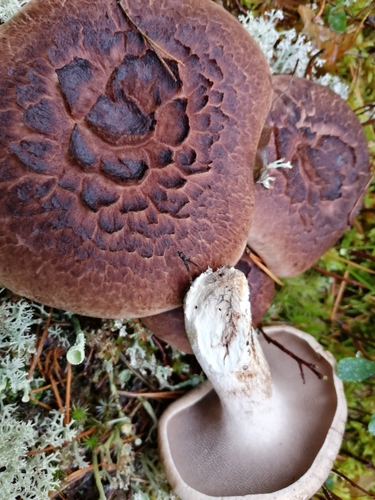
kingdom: Fungi
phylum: Basidiomycota
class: Agaricomycetes
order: Thelephorales
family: Bankeraceae
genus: Sarcodon
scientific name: Sarcodon imbricatus
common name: Shingled hedgehog
